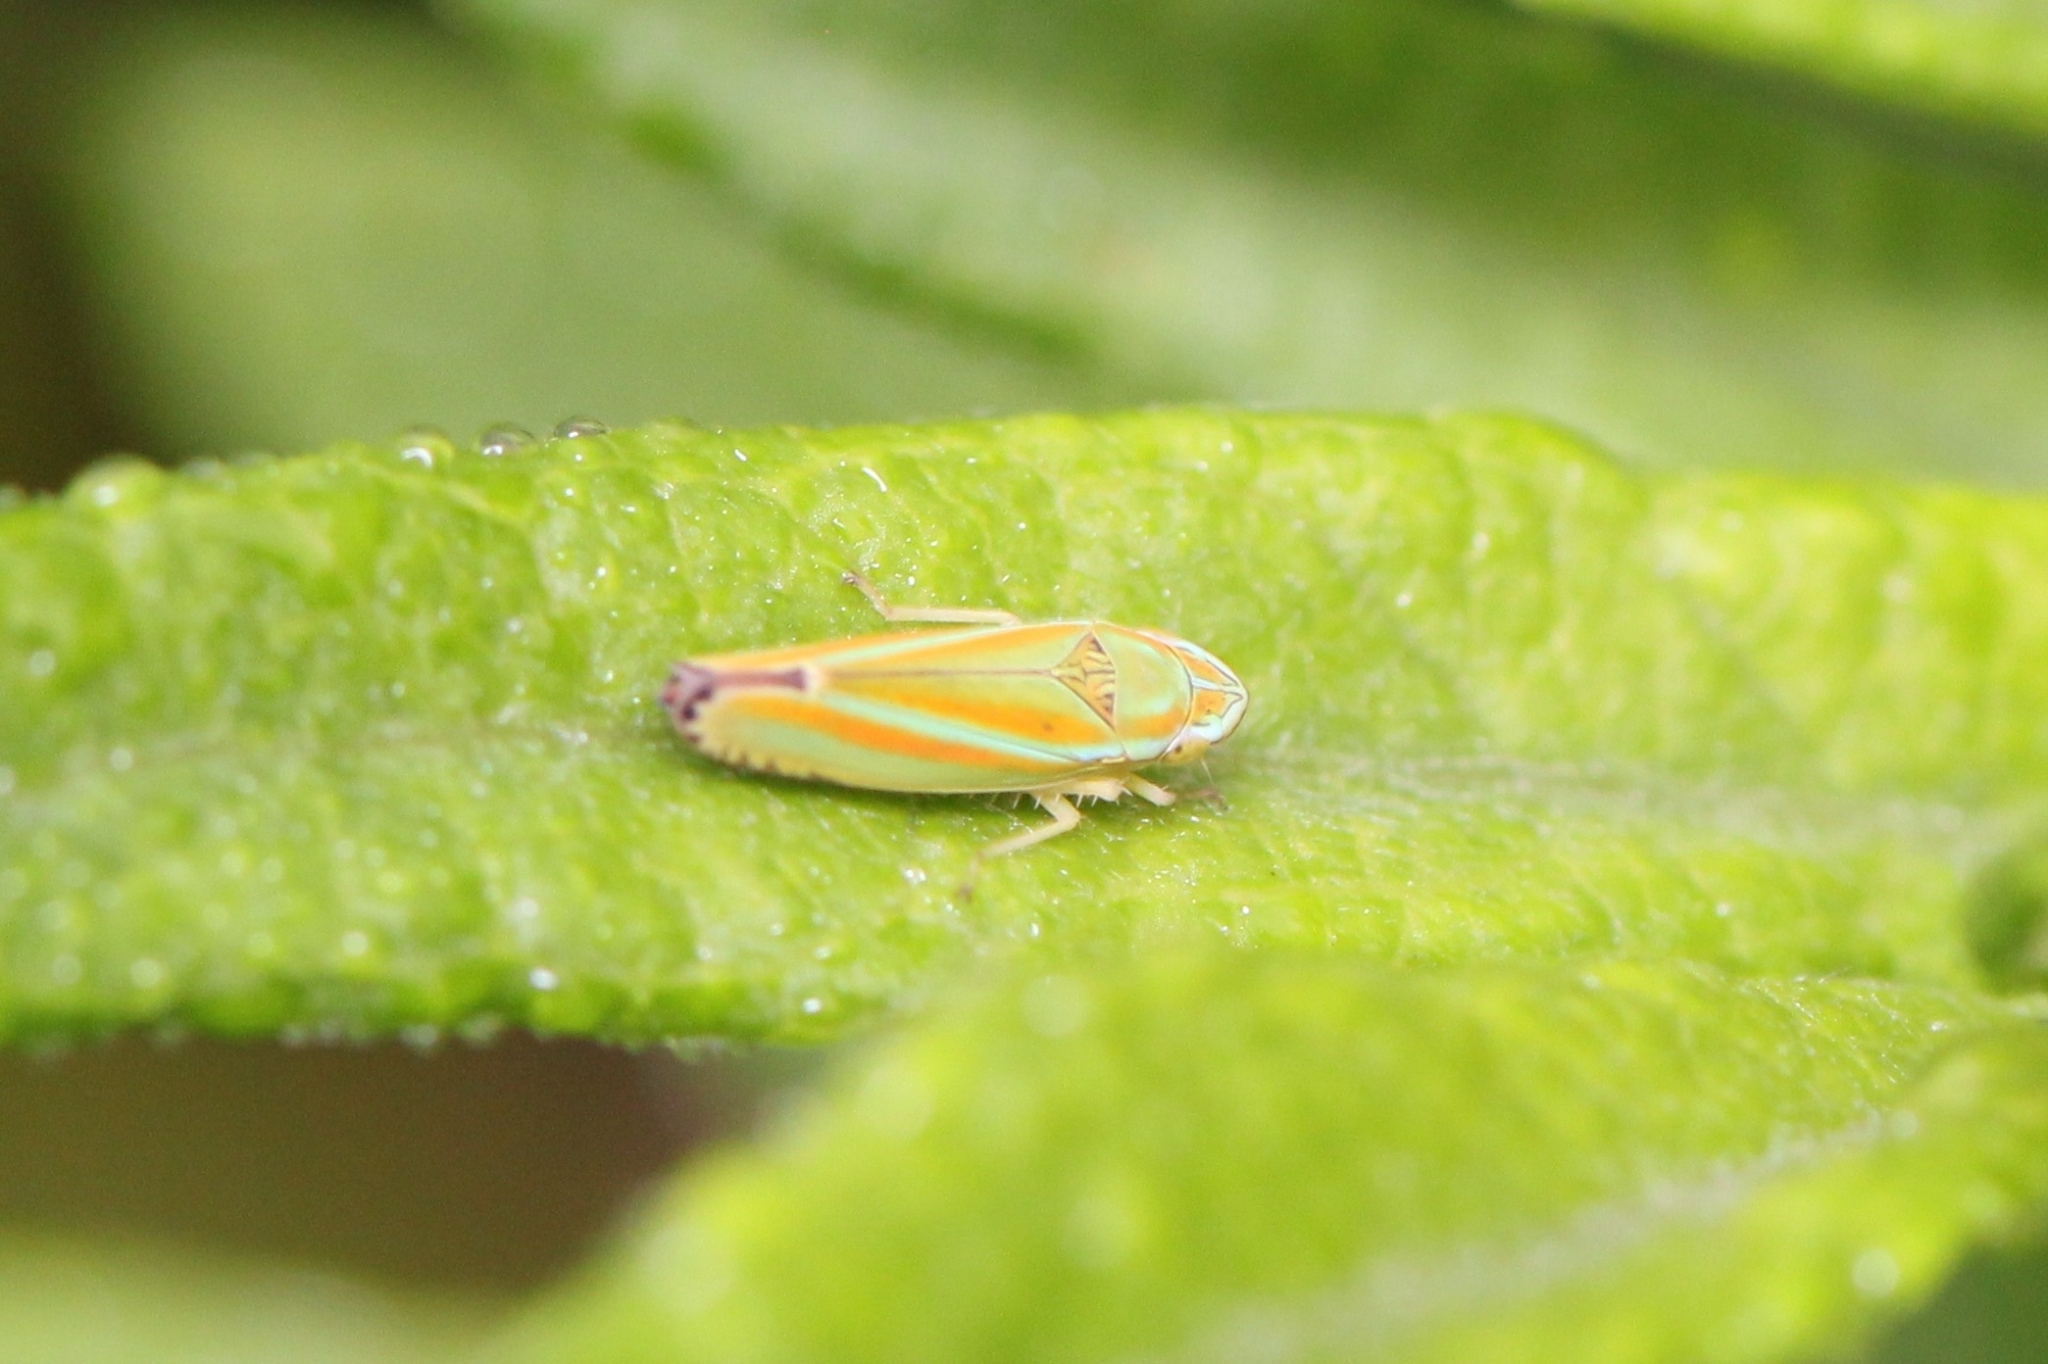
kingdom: Animalia
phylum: Arthropoda
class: Insecta
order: Hemiptera
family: Cicadellidae
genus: Graphocephala
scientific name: Graphocephala versuta
